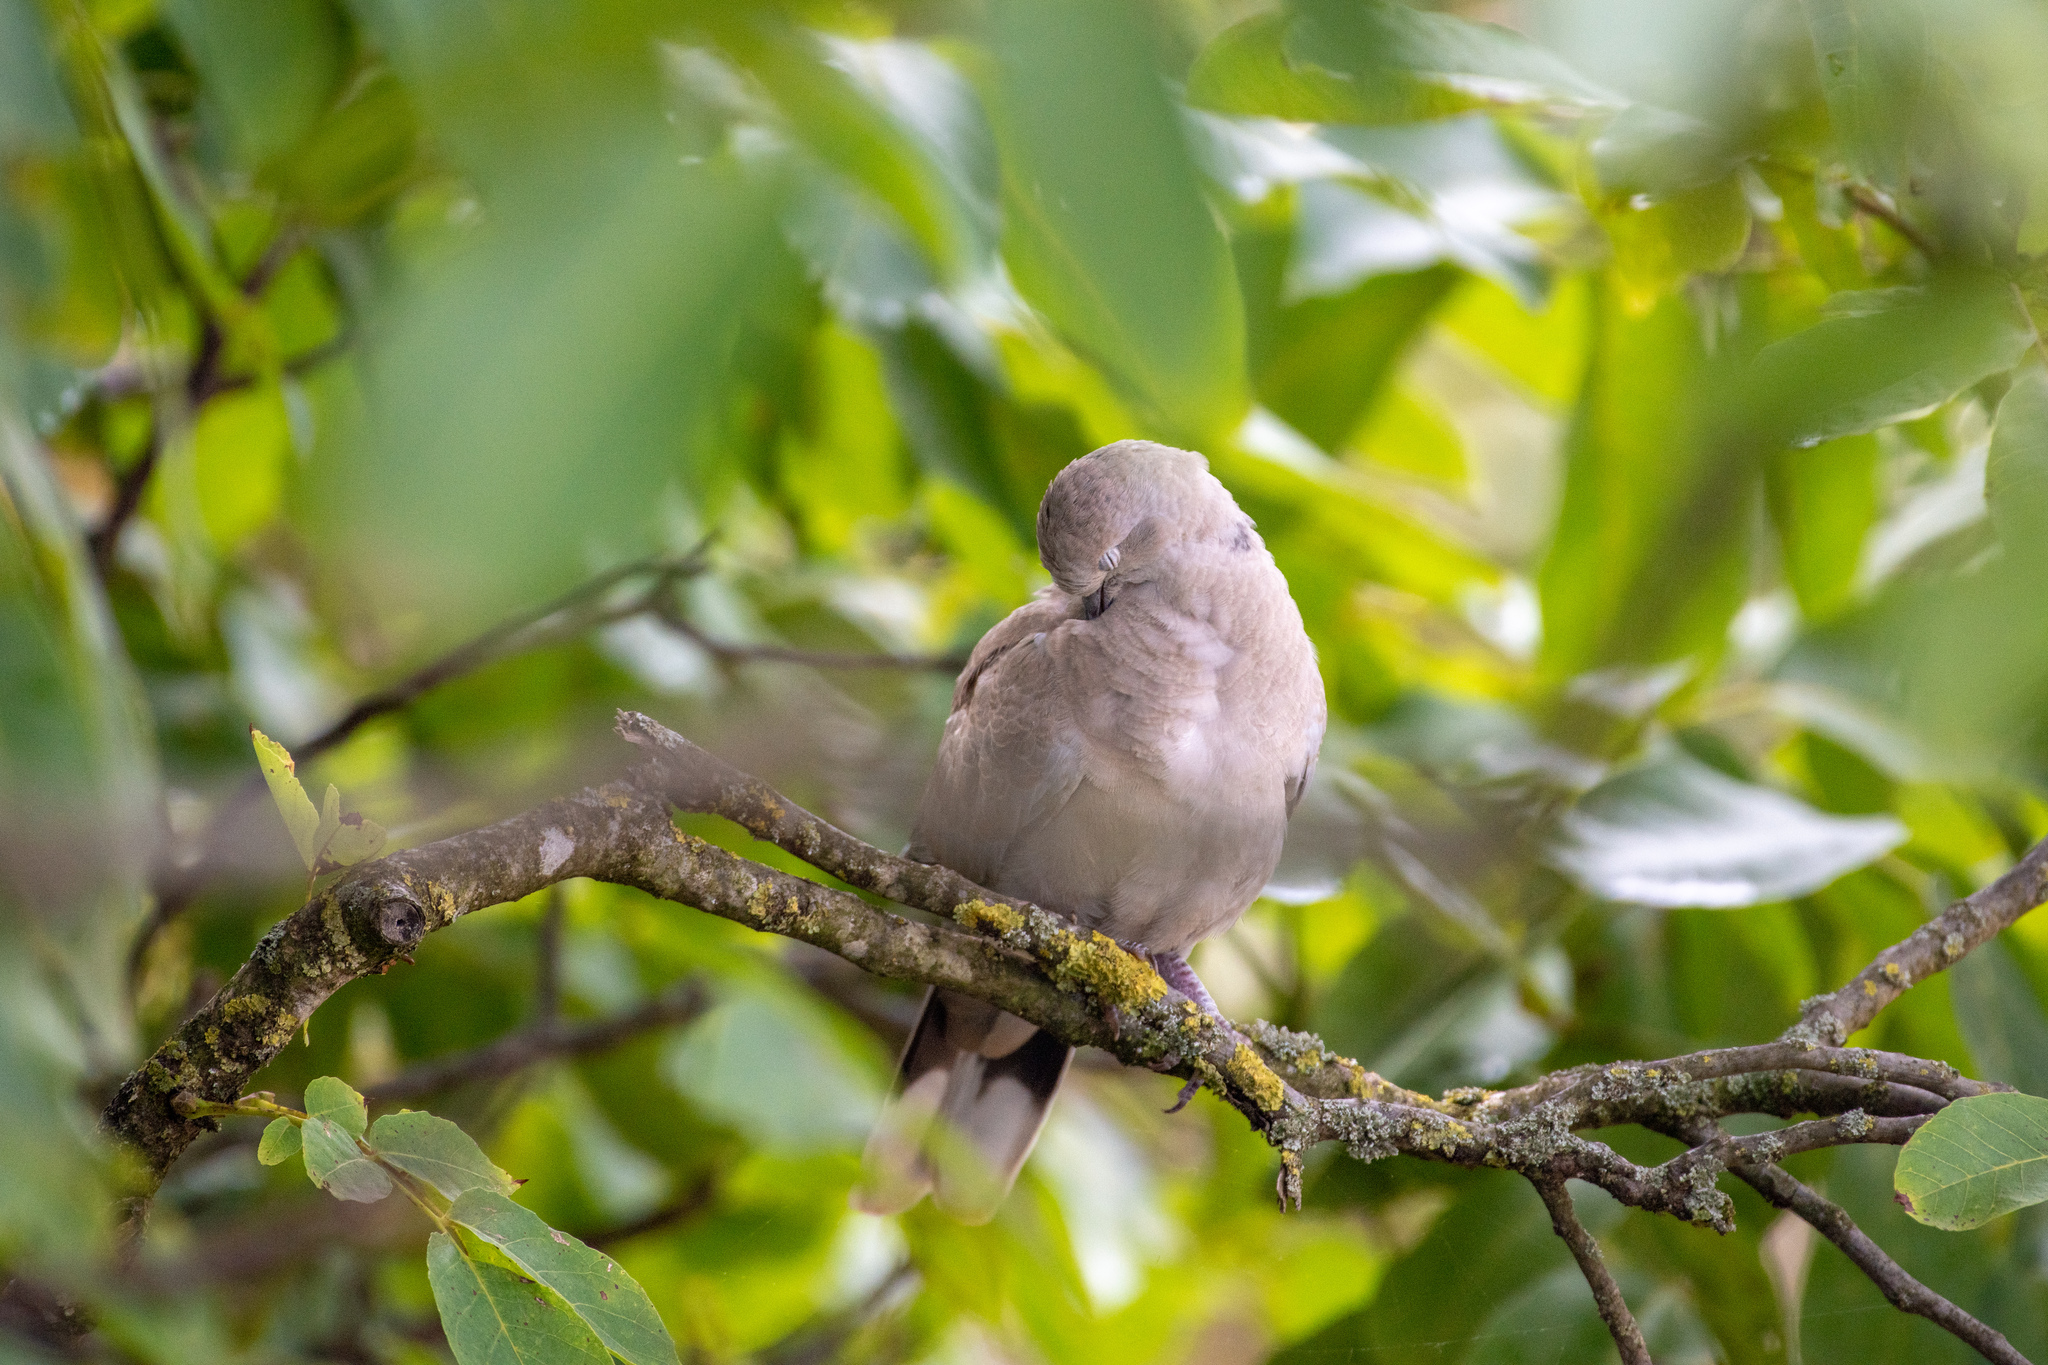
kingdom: Animalia
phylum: Chordata
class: Aves
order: Columbiformes
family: Columbidae
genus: Streptopelia
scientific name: Streptopelia decaocto
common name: Eurasian collared dove
